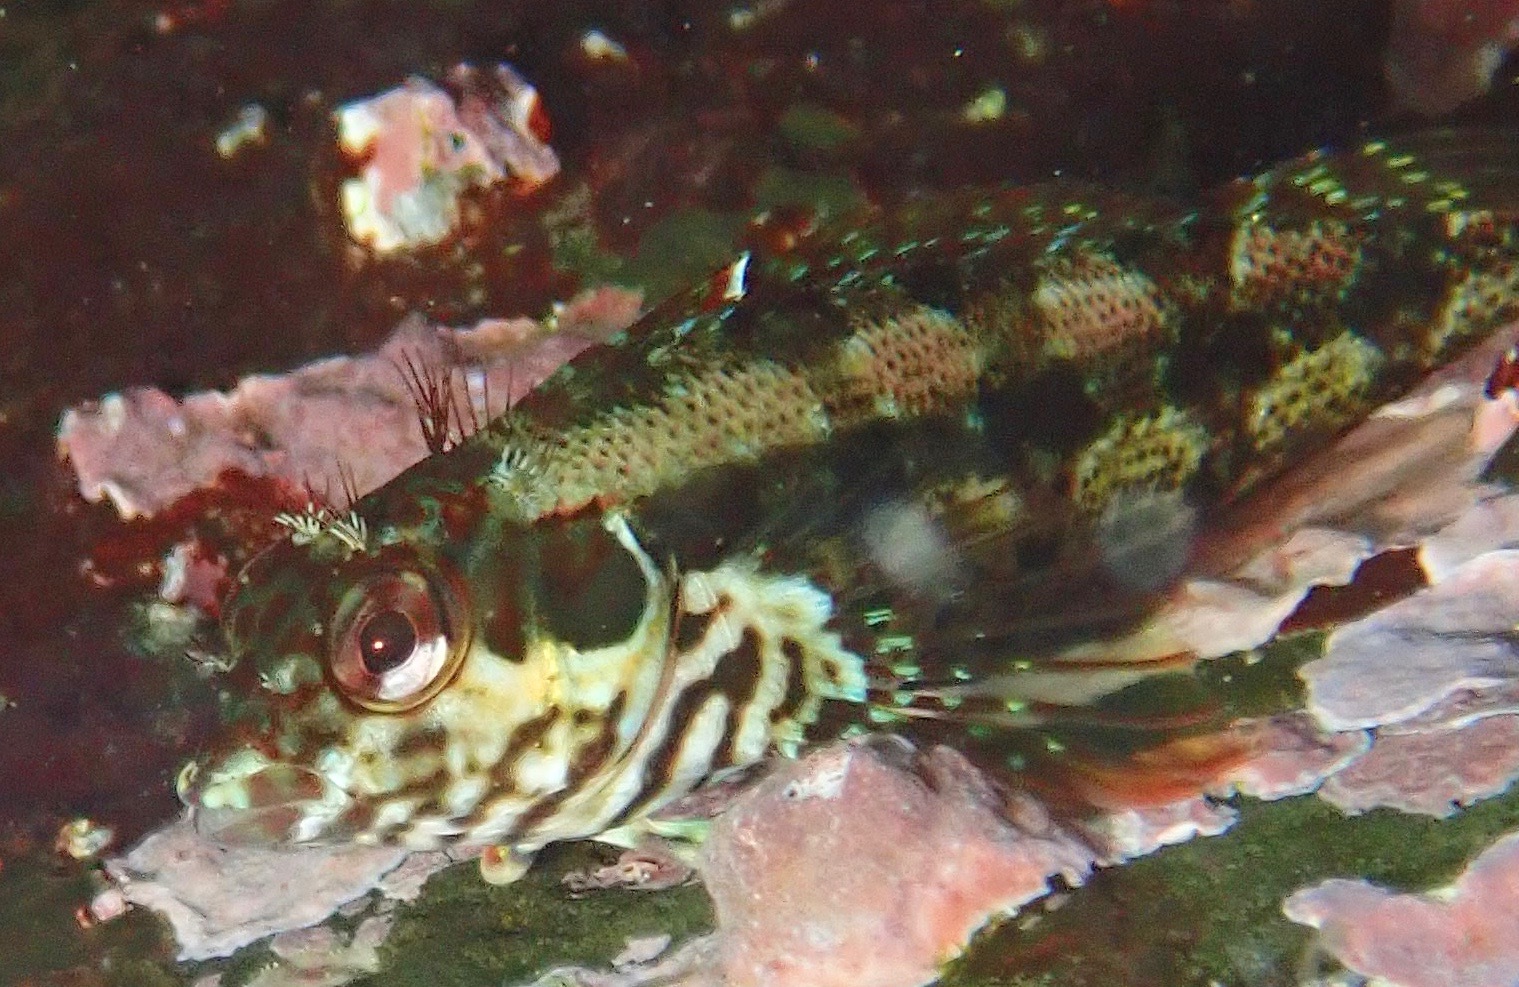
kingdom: Animalia
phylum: Chordata
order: Perciformes
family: Labrisomidae
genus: Malacoctenus
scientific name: Malacoctenus zonogaster
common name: Belted blenny
